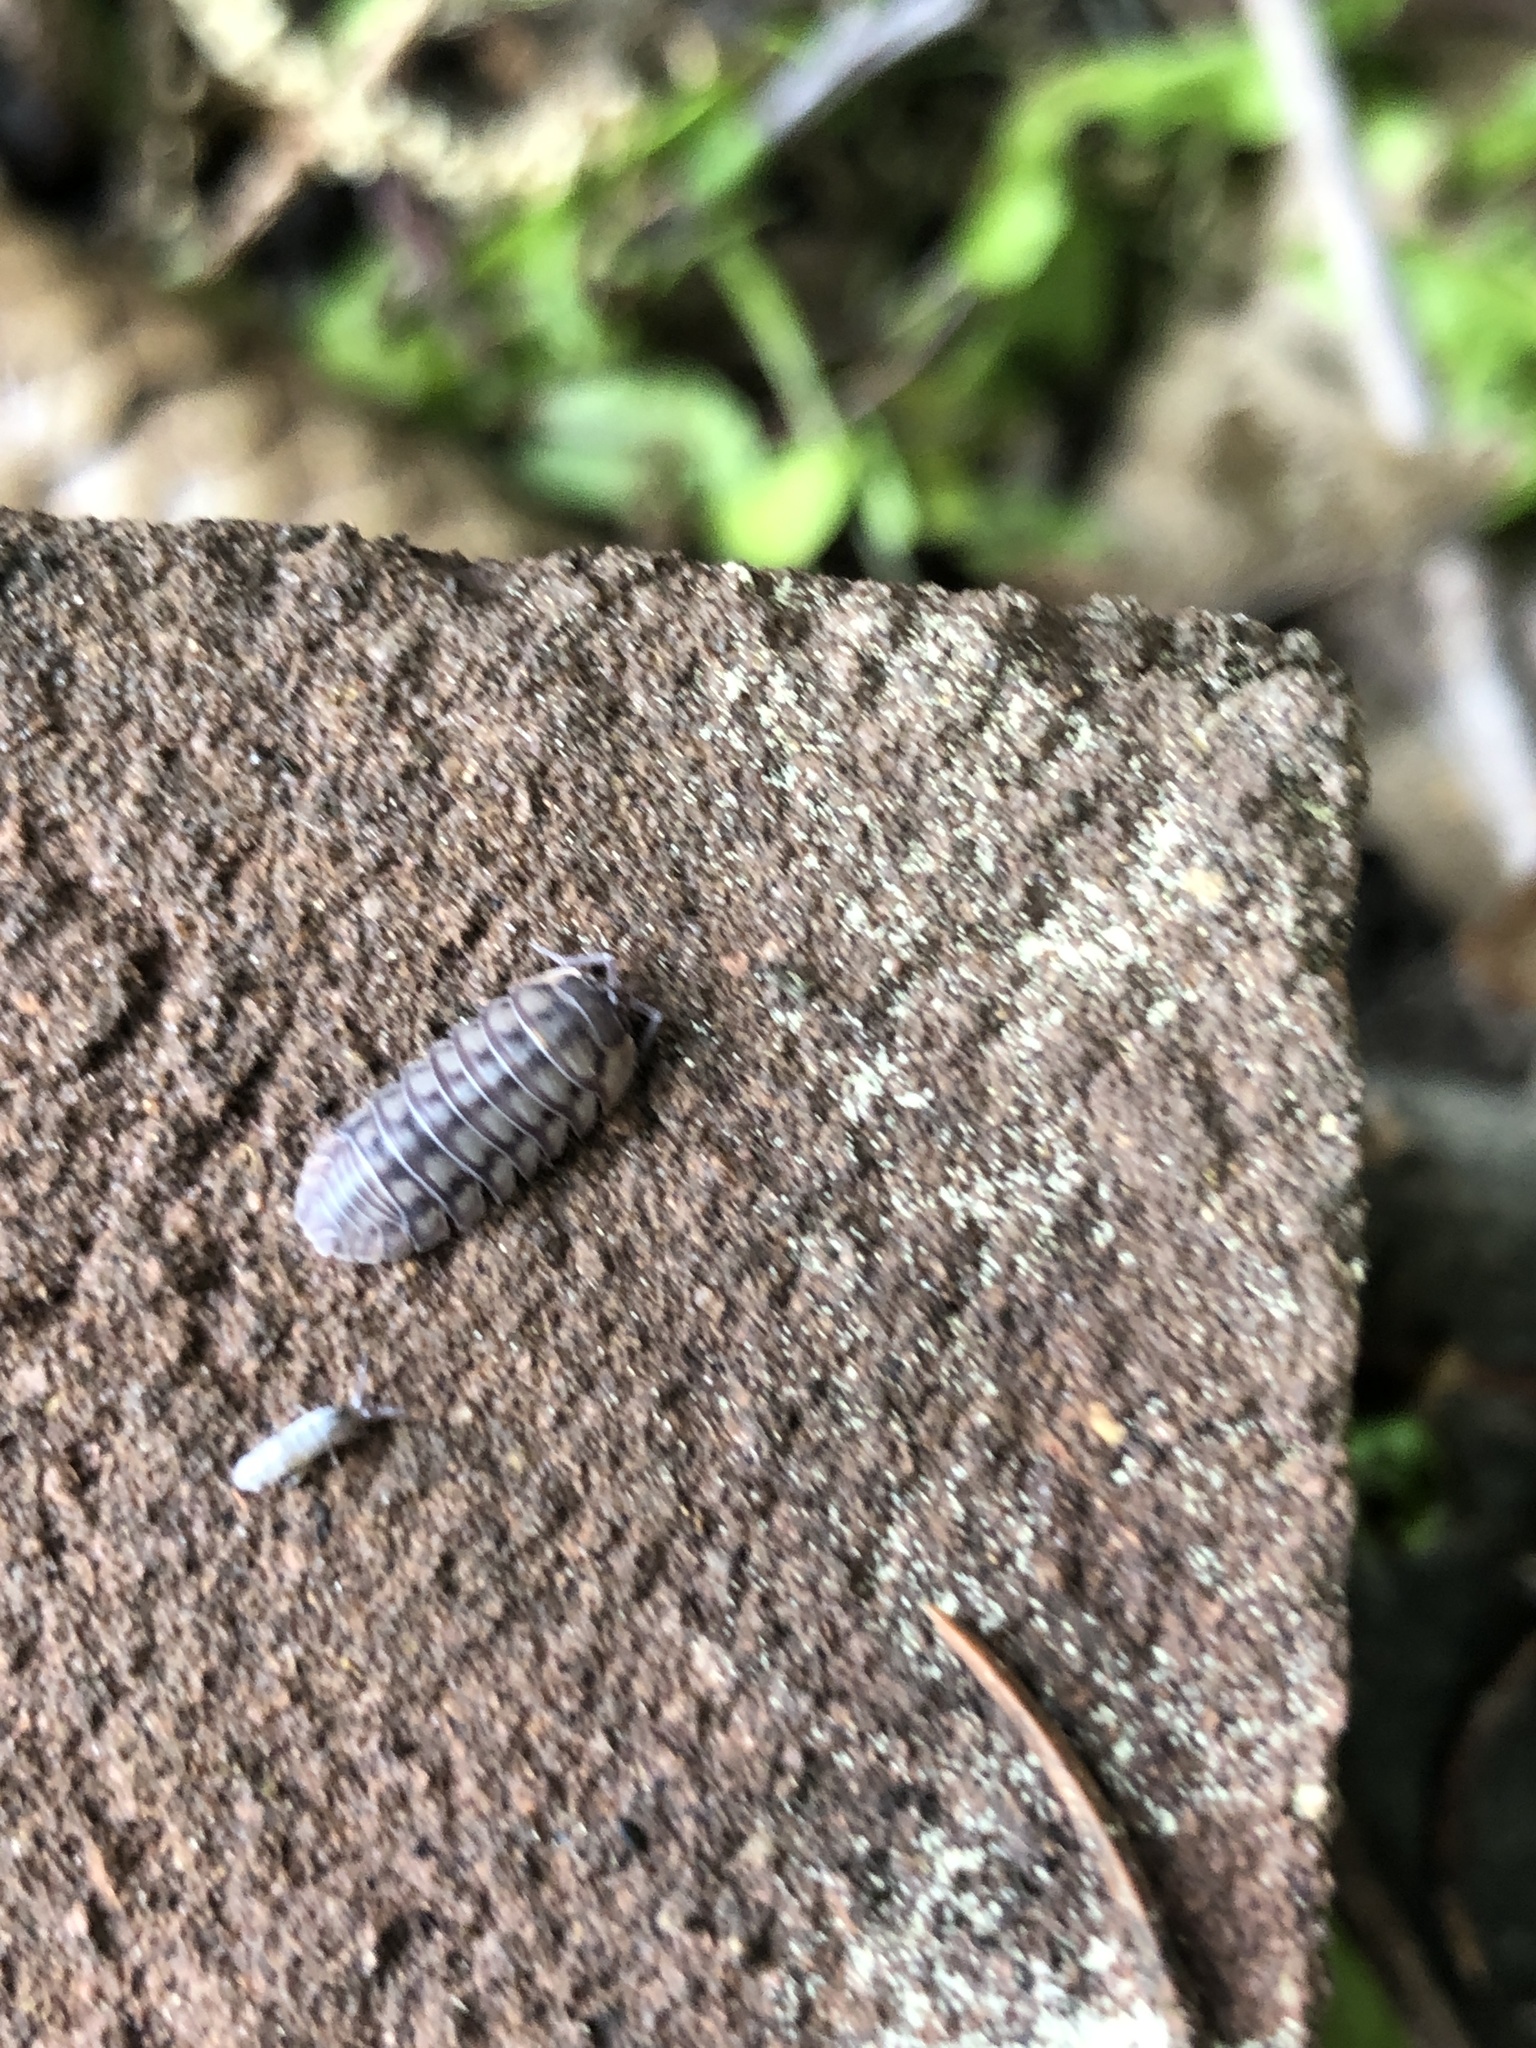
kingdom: Animalia
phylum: Arthropoda
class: Malacostraca
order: Isopoda
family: Armadillidiidae
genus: Armadillidium
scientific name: Armadillidium nasatum
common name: Isopod
